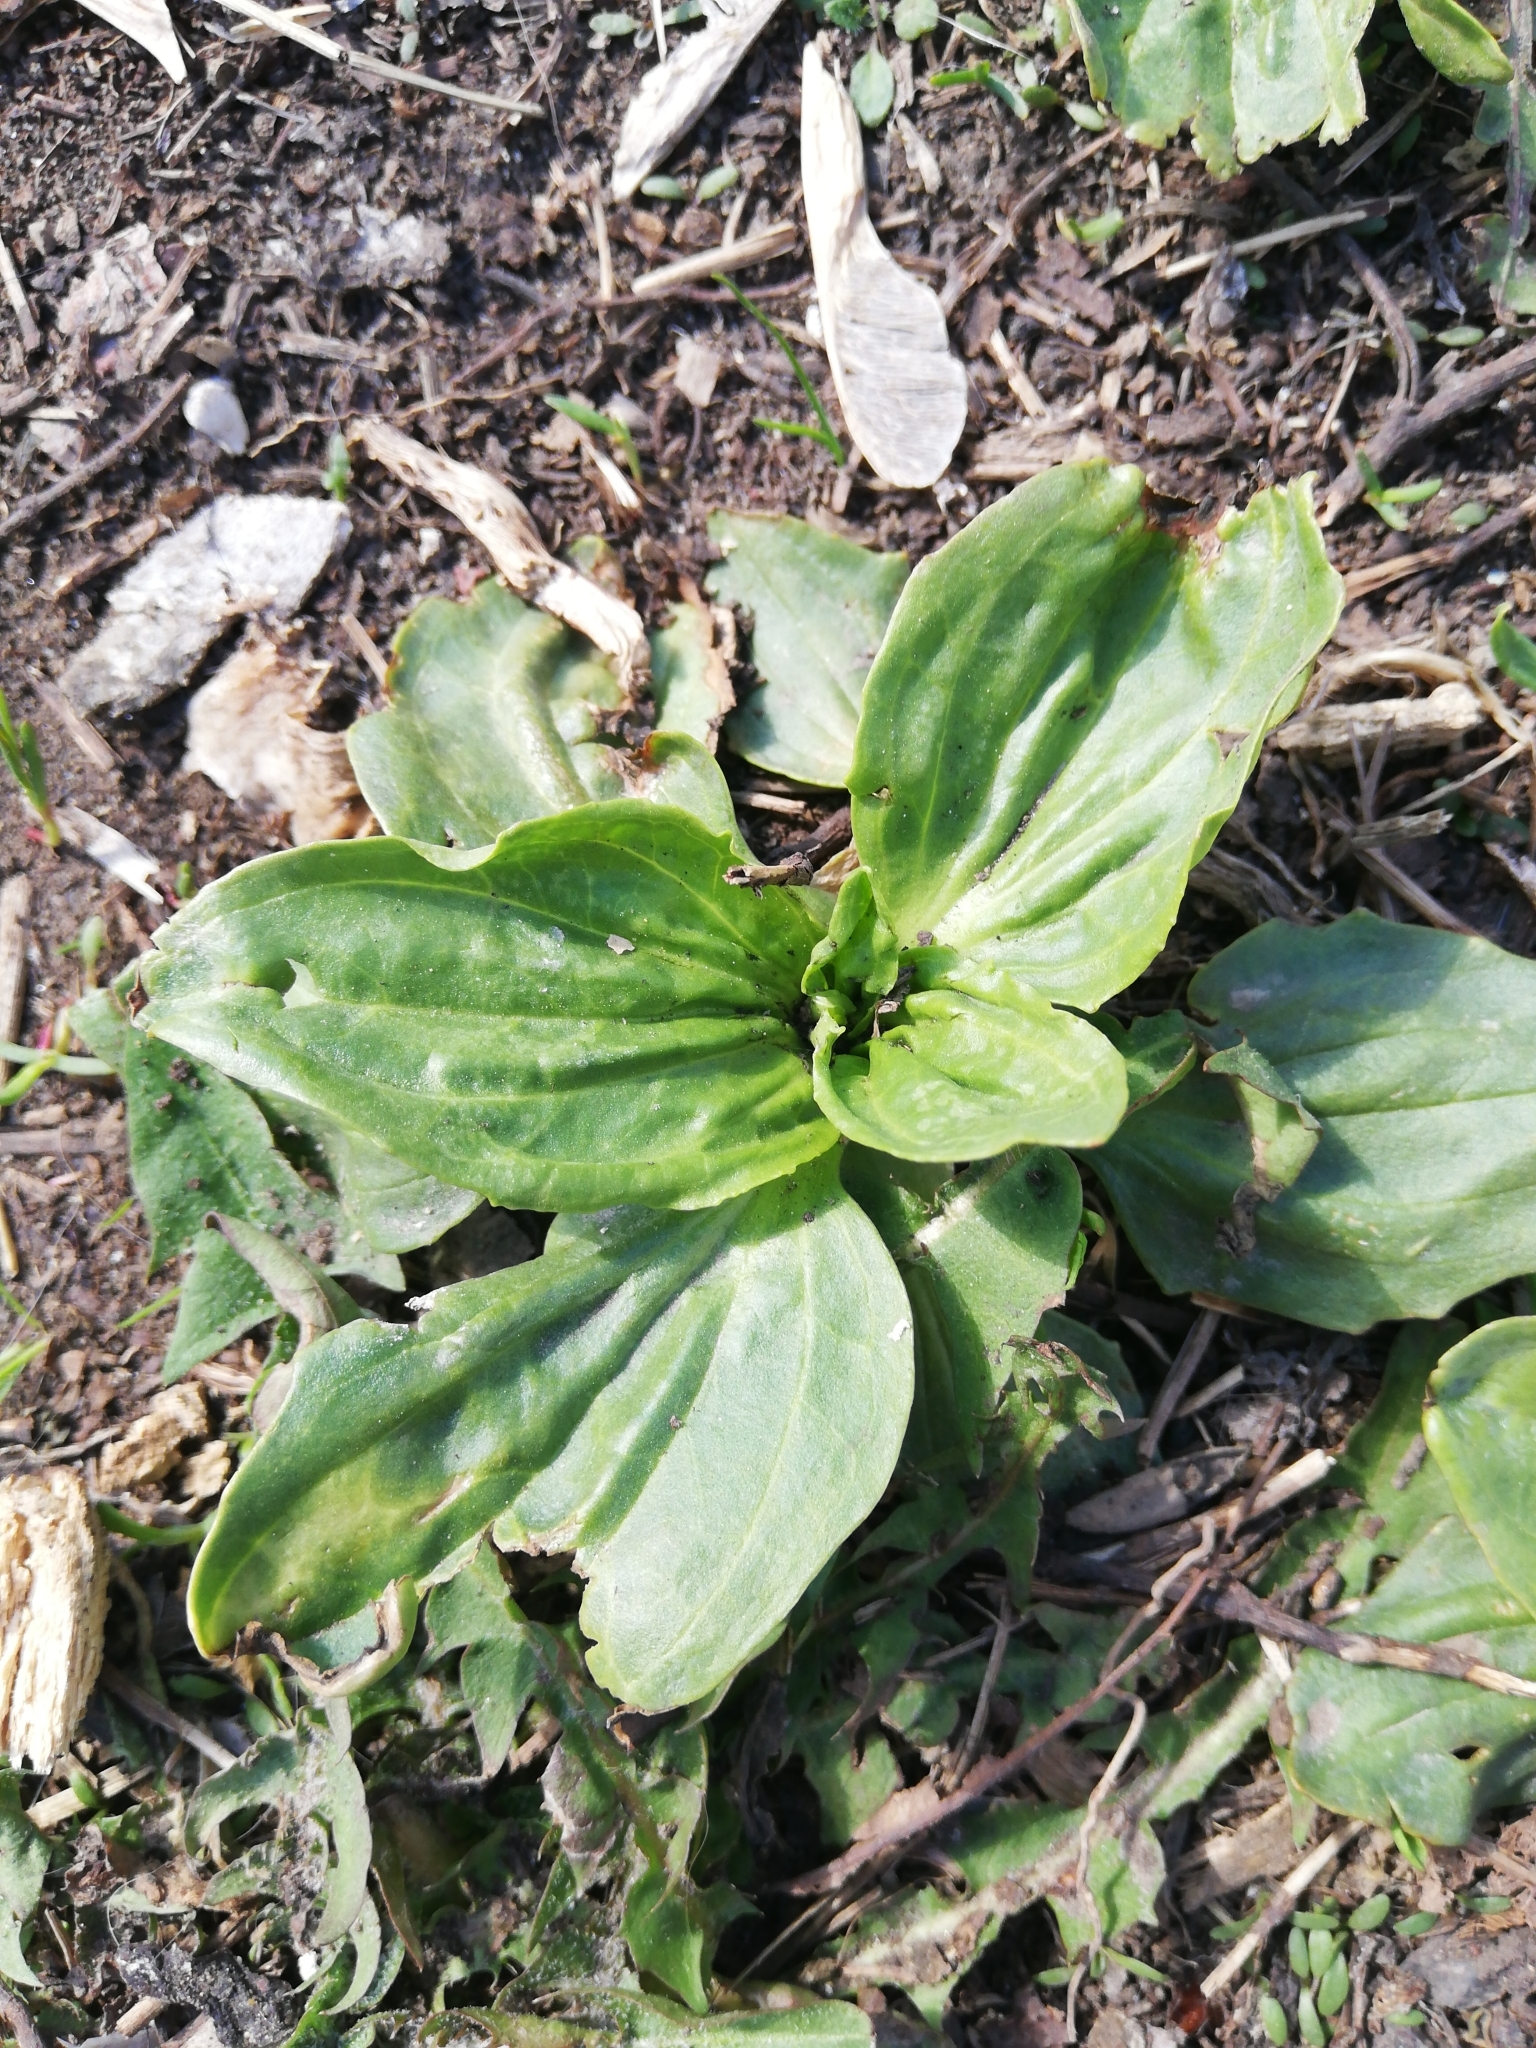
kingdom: Plantae
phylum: Tracheophyta
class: Magnoliopsida
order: Lamiales
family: Plantaginaceae
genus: Plantago
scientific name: Plantago major
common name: Common plantain
